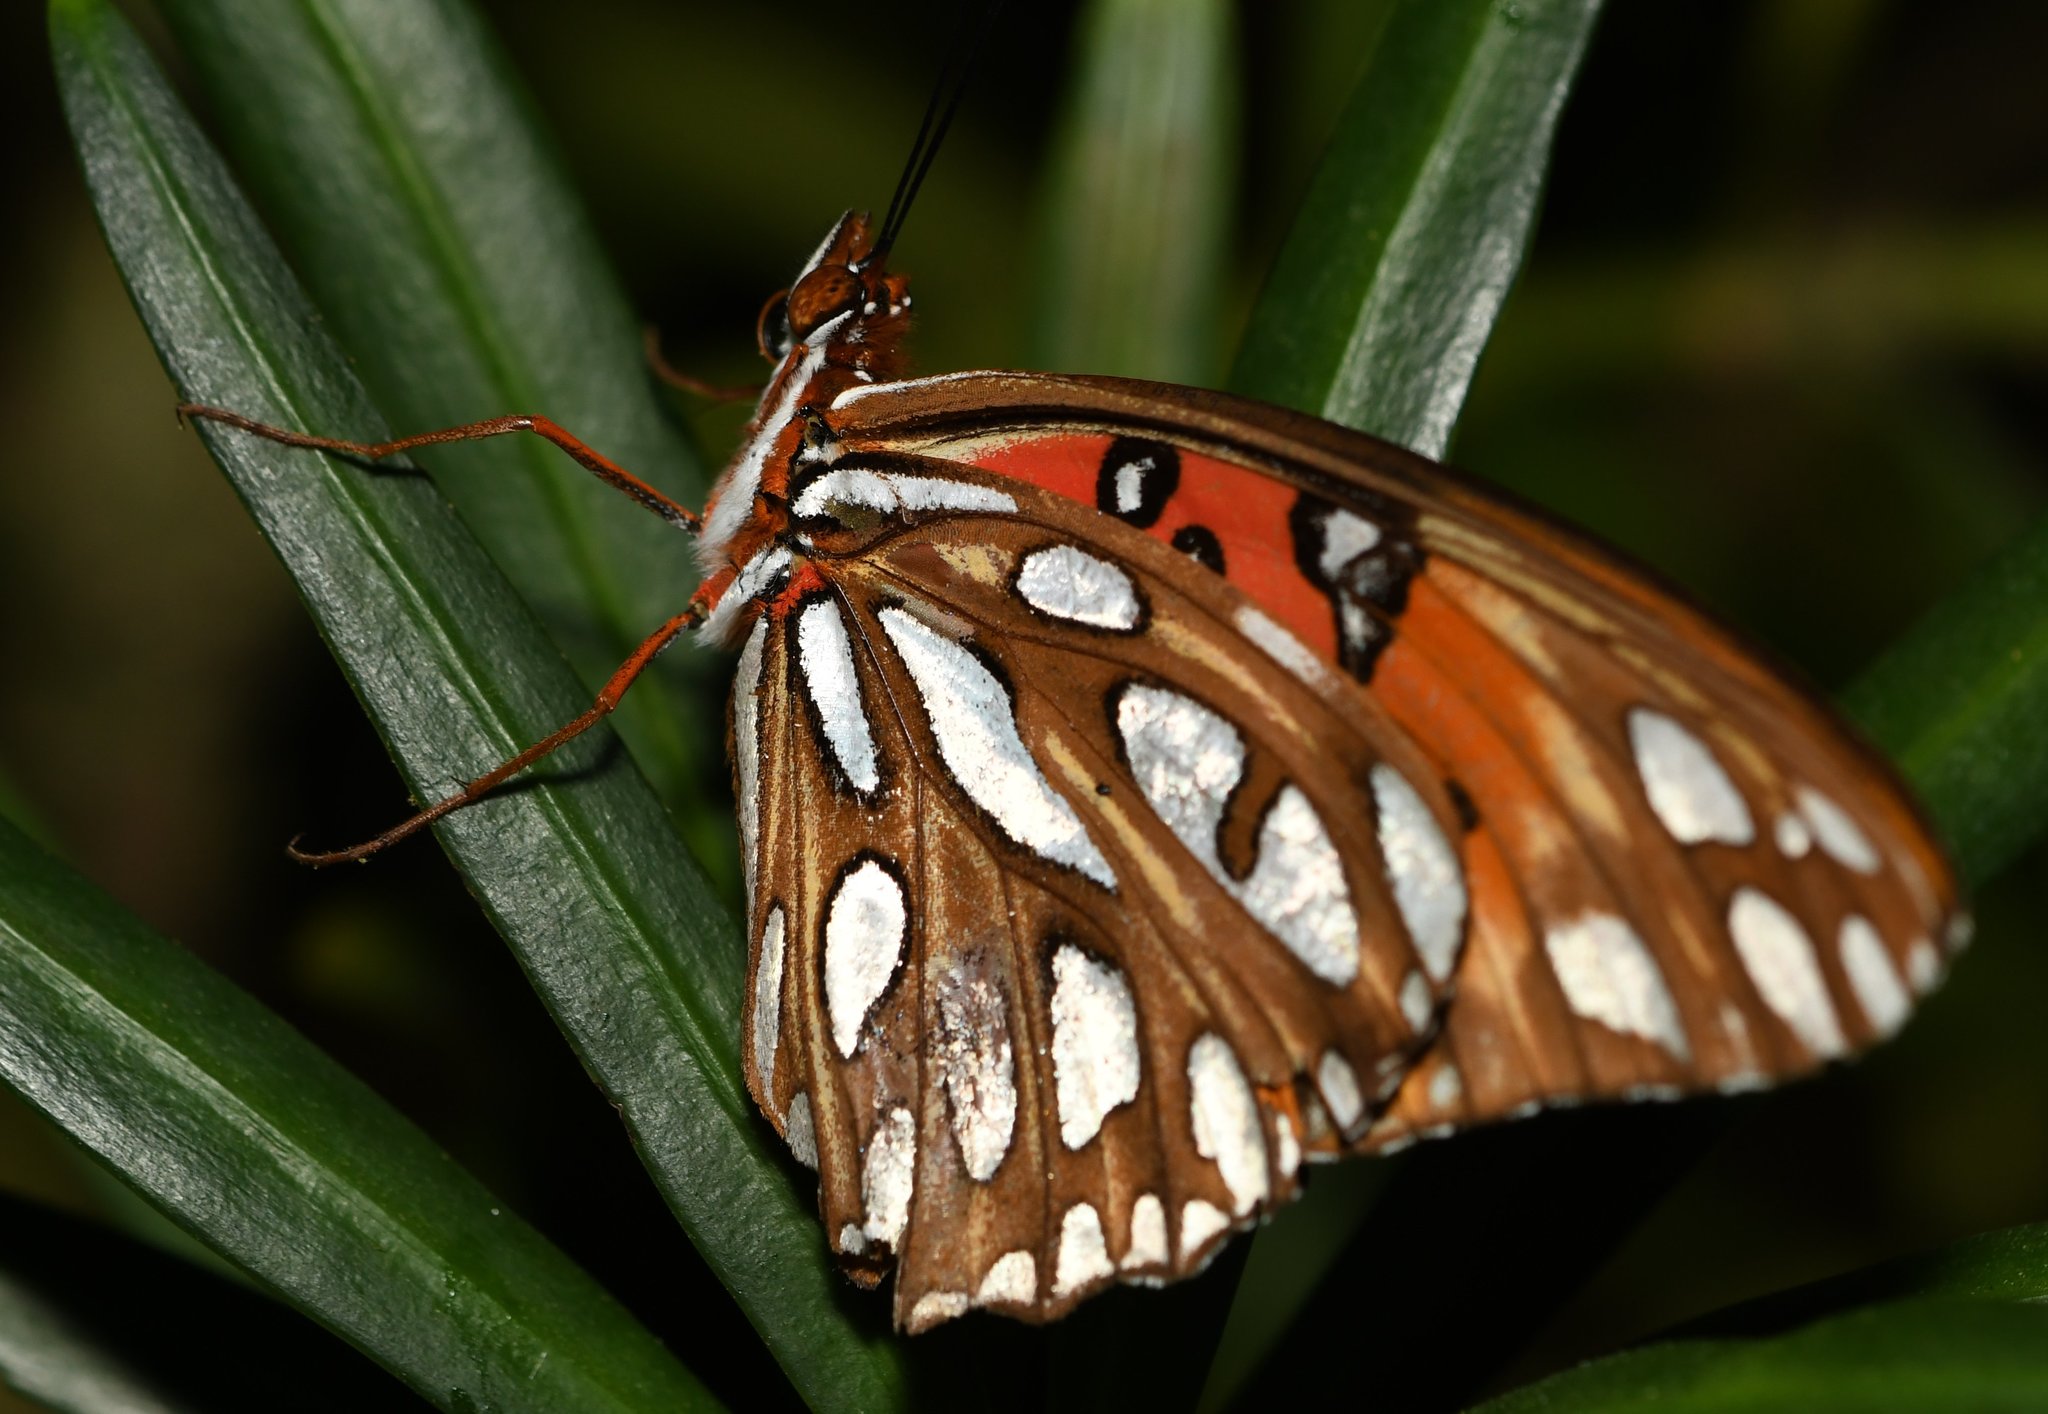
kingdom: Animalia
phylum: Arthropoda
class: Insecta
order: Lepidoptera
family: Nymphalidae
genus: Dione
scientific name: Dione vanillae
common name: Gulf fritillary
